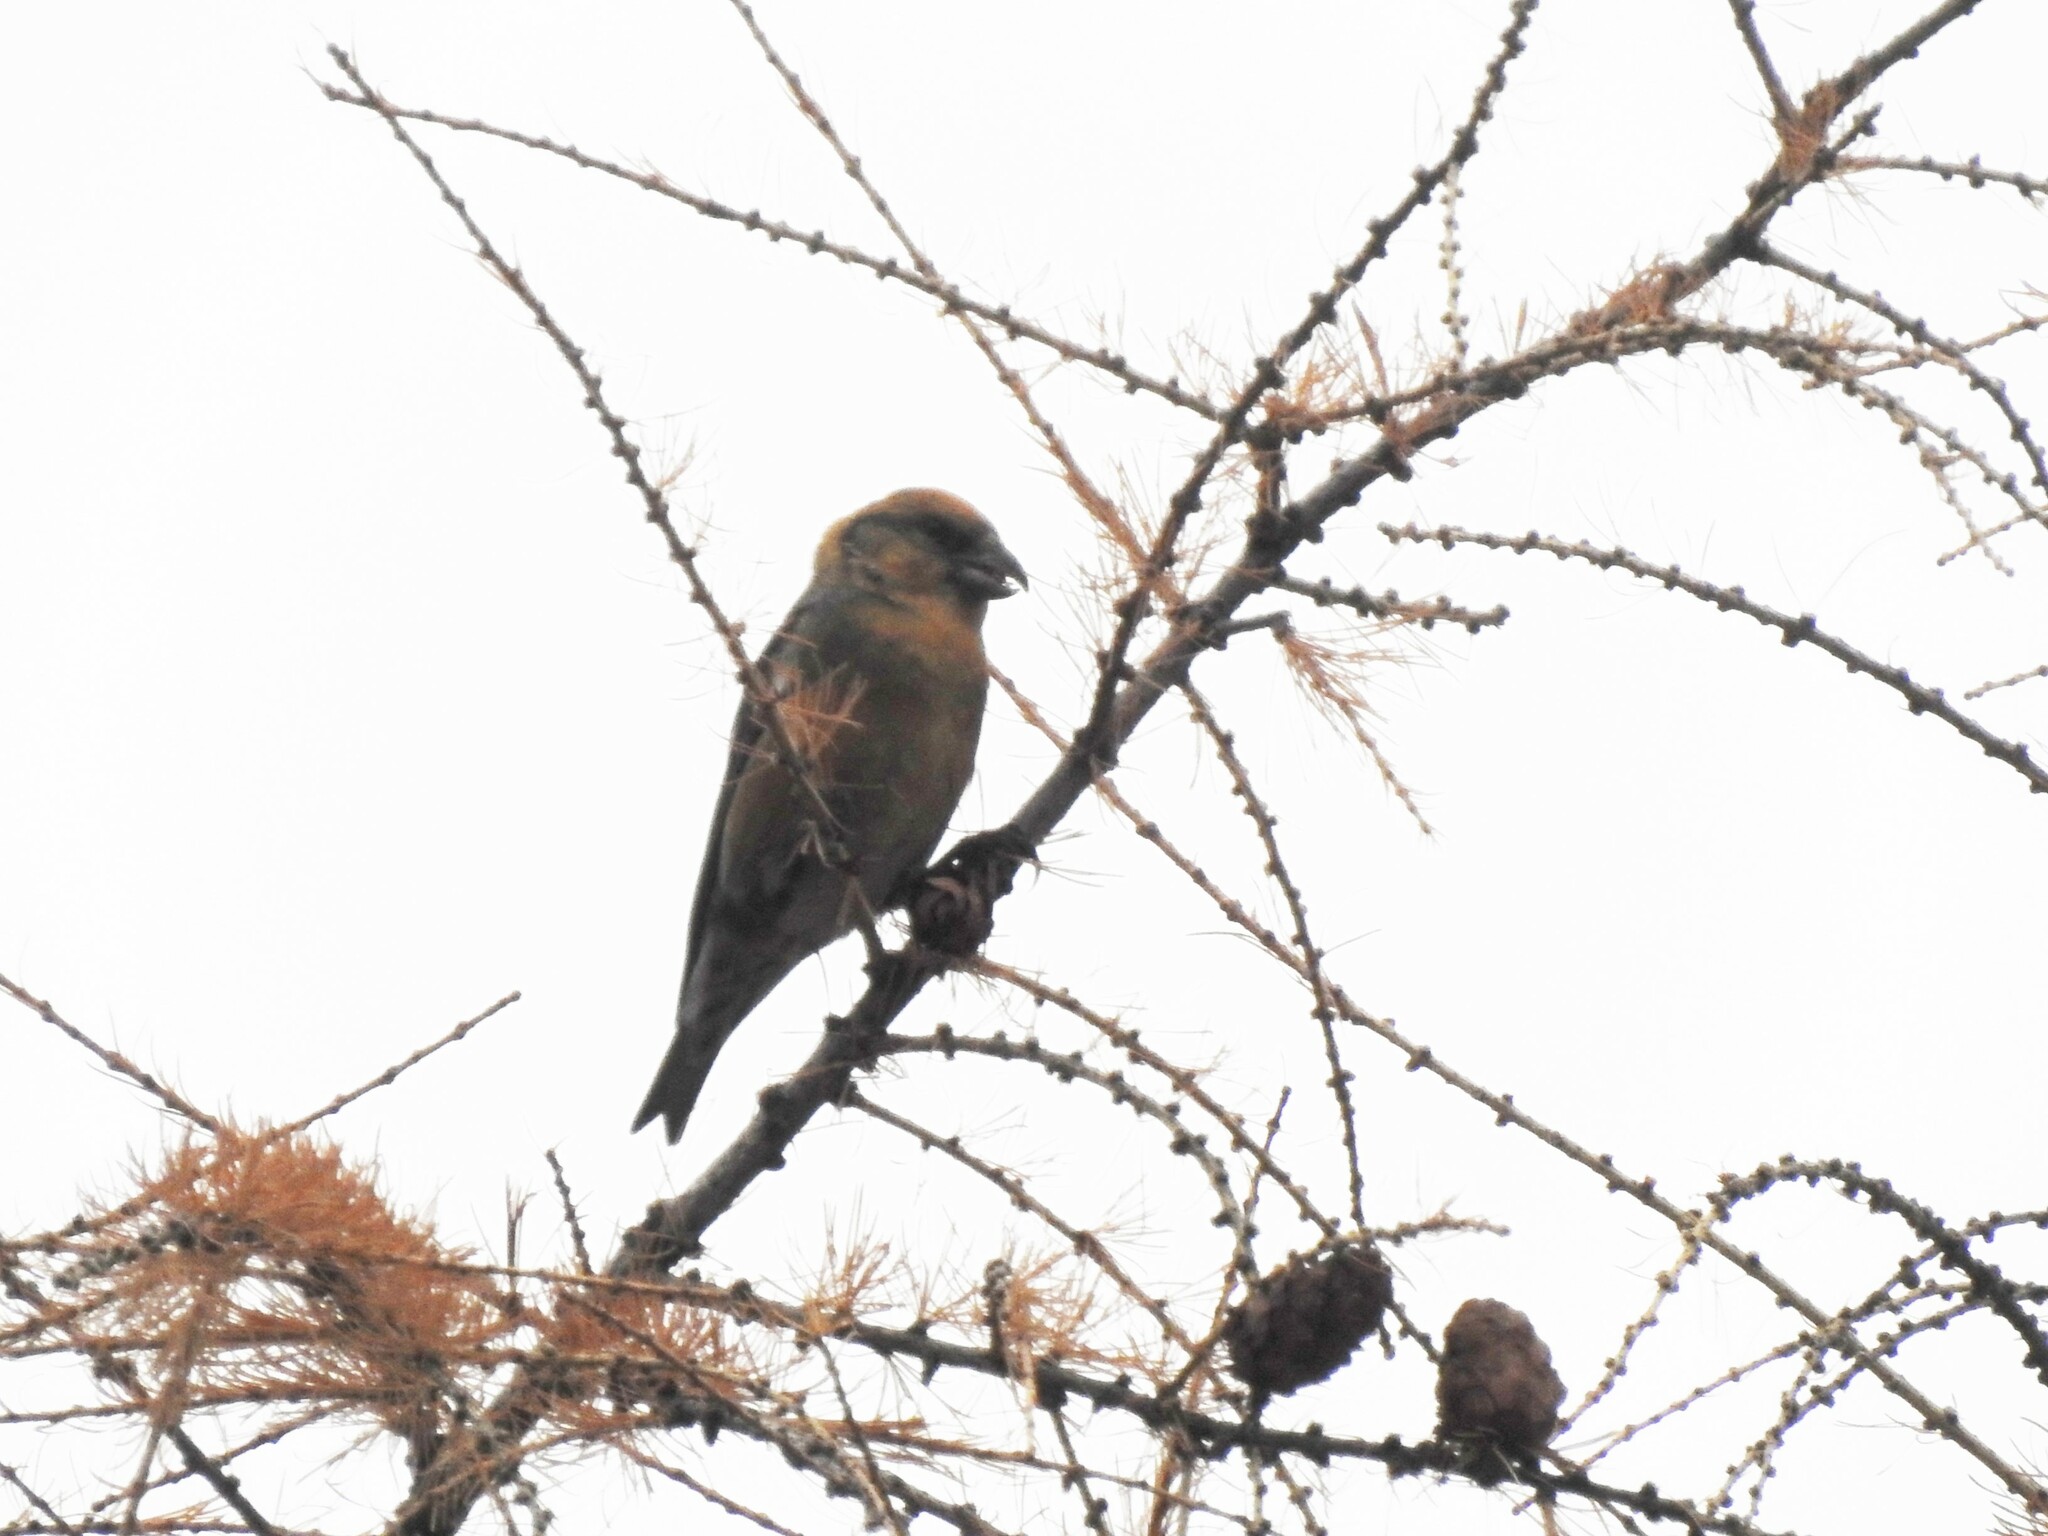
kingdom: Animalia
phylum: Chordata
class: Aves
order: Passeriformes
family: Fringillidae
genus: Loxia
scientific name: Loxia curvirostra
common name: Red crossbill
